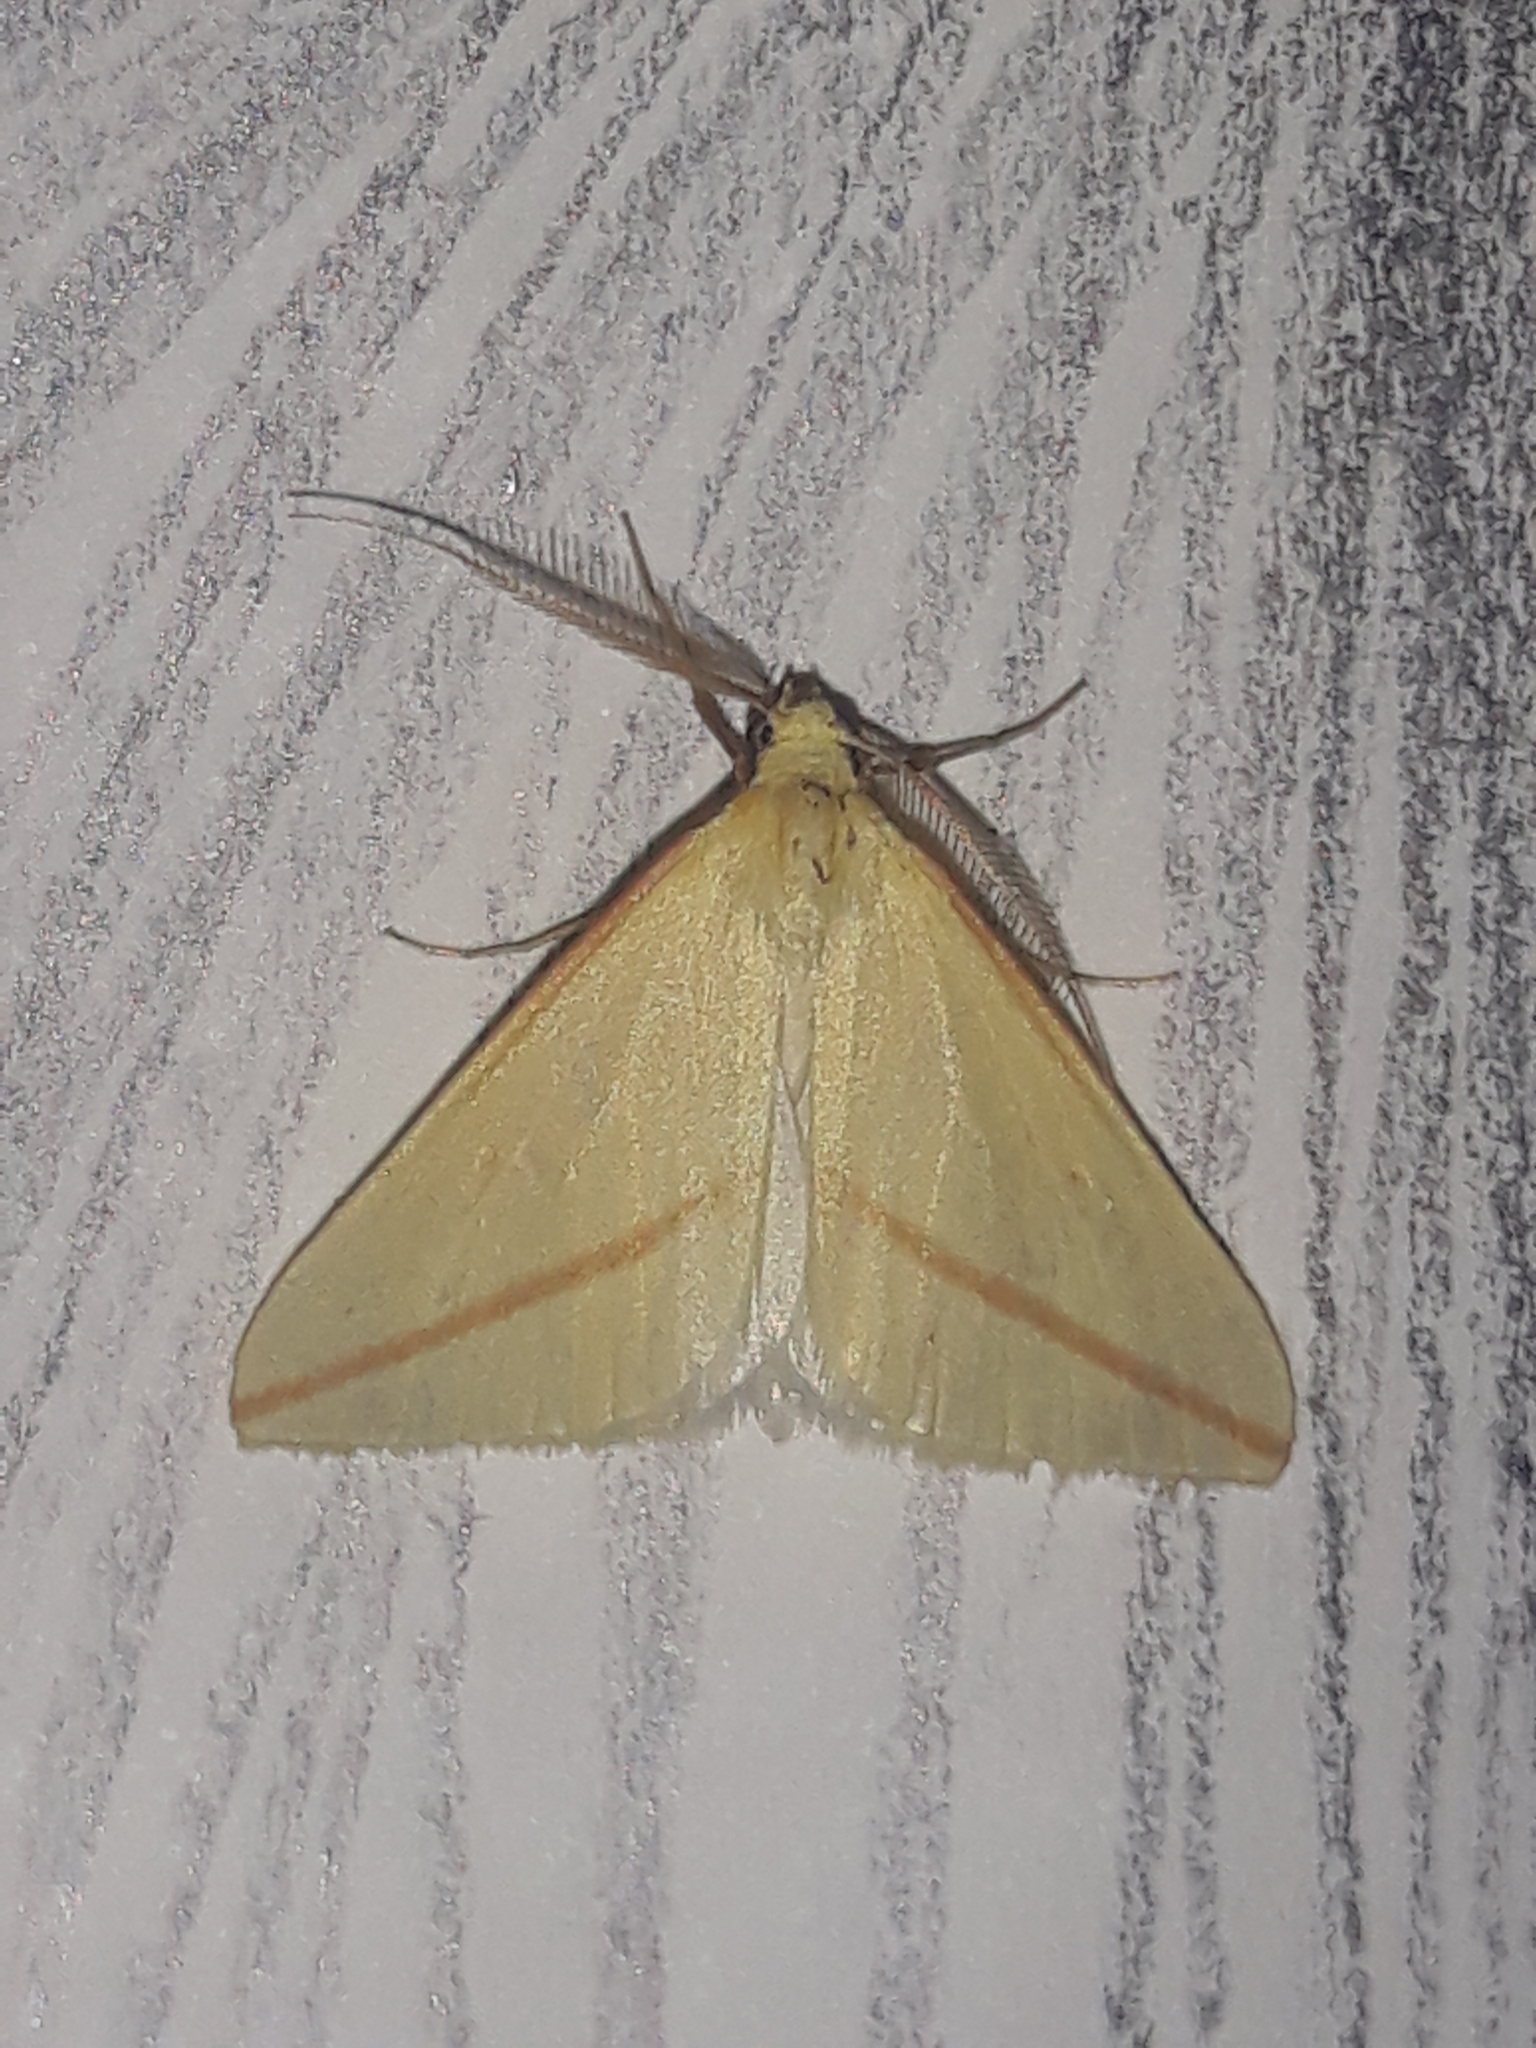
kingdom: Animalia
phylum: Arthropoda
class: Insecta
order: Lepidoptera
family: Geometridae
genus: Rhodometra
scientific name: Rhodometra sacraria
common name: Vestal
